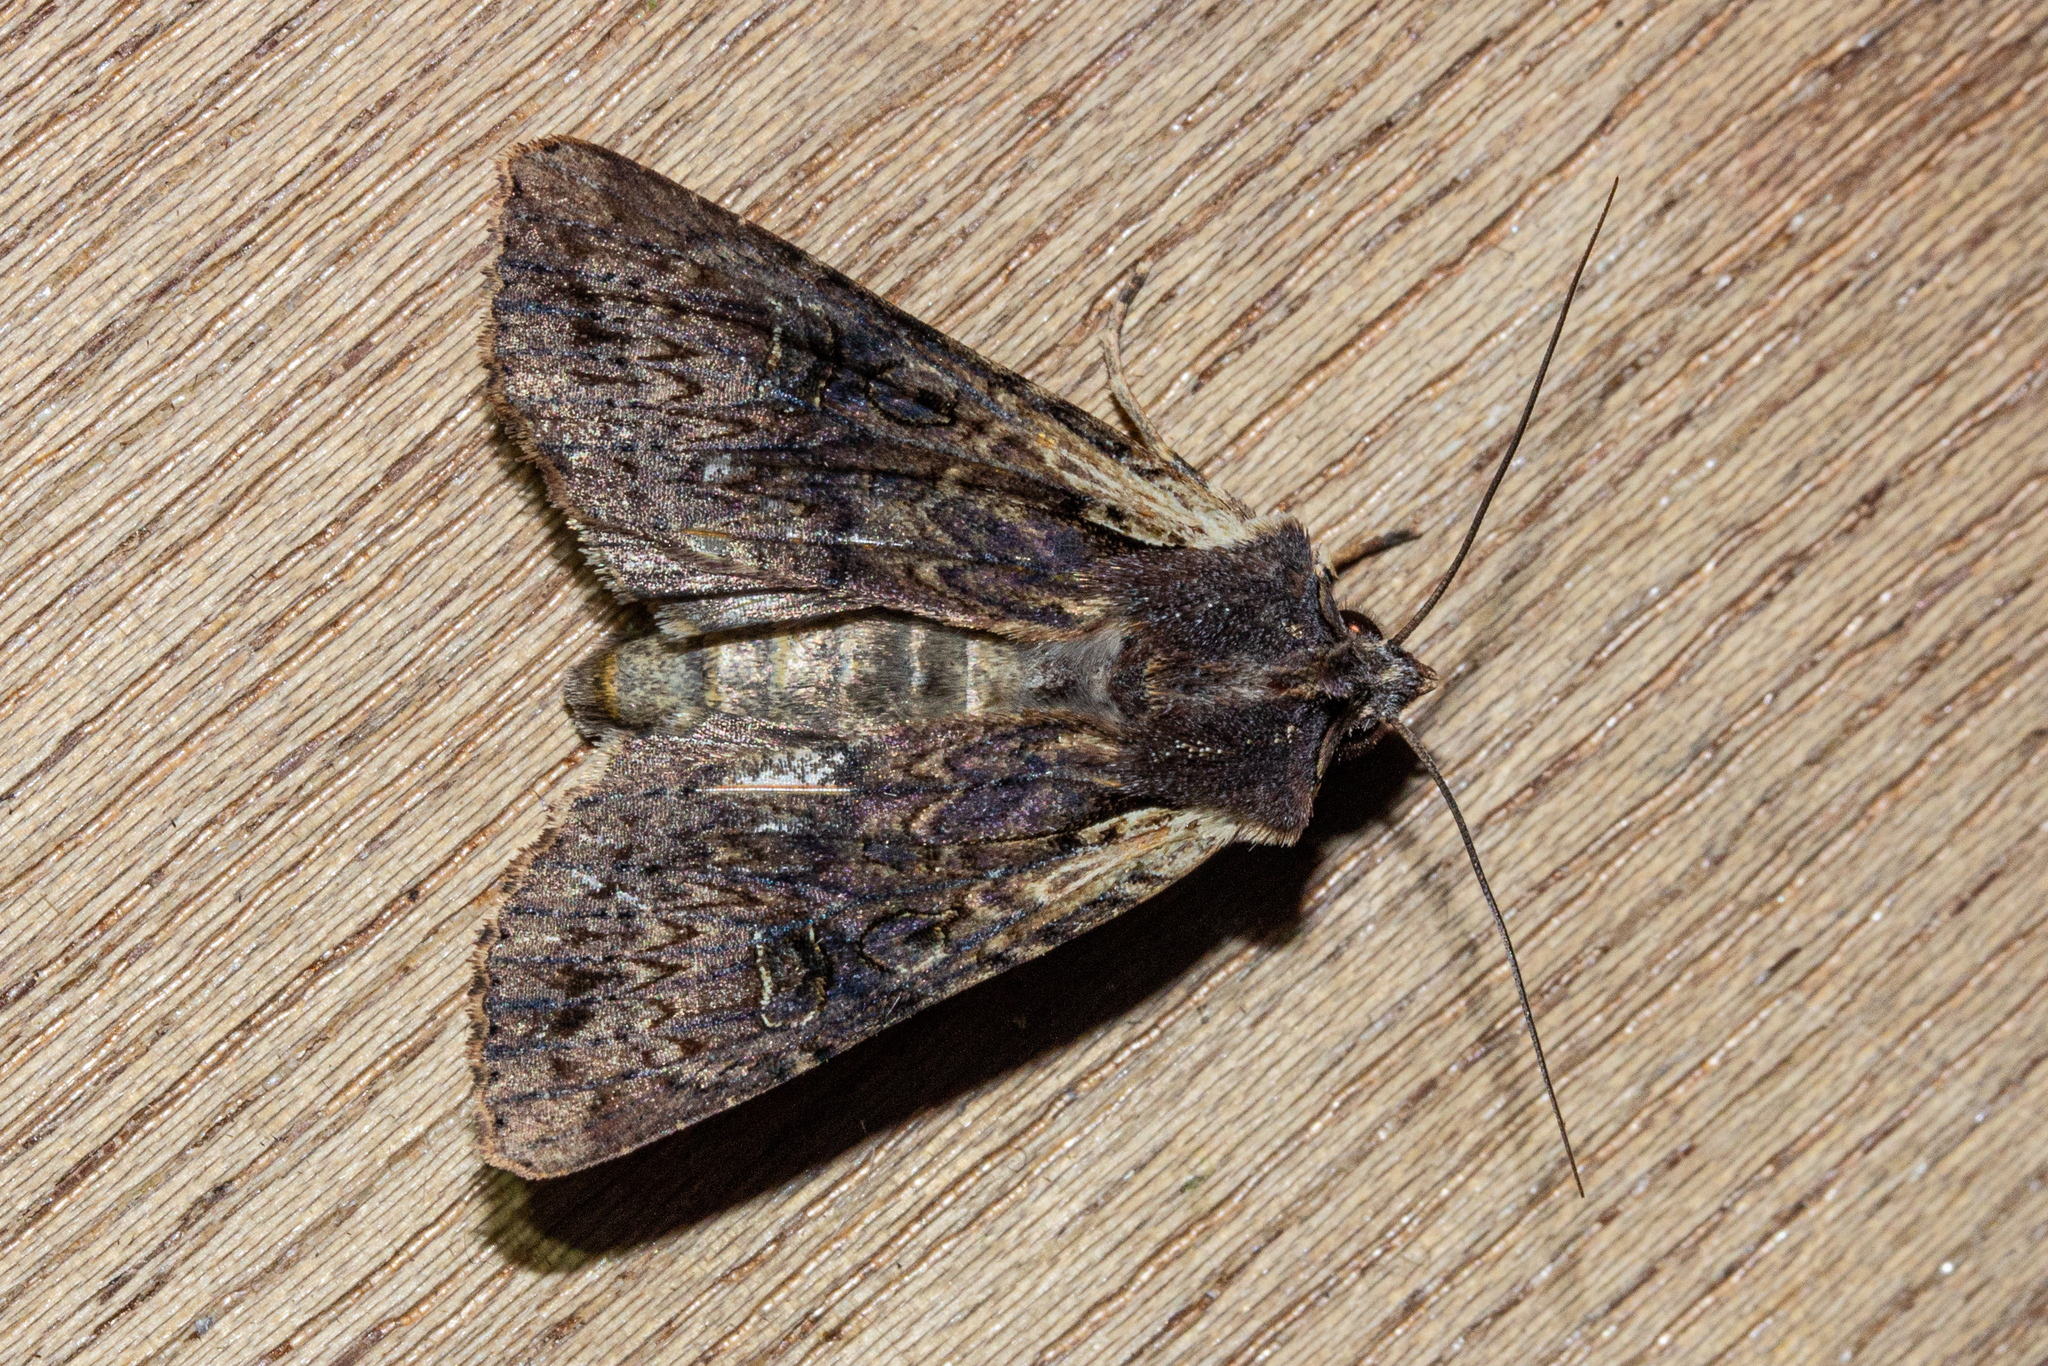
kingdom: Animalia
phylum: Arthropoda
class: Insecta
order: Lepidoptera
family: Noctuidae
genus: Ichneutica
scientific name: Ichneutica omoplaca
